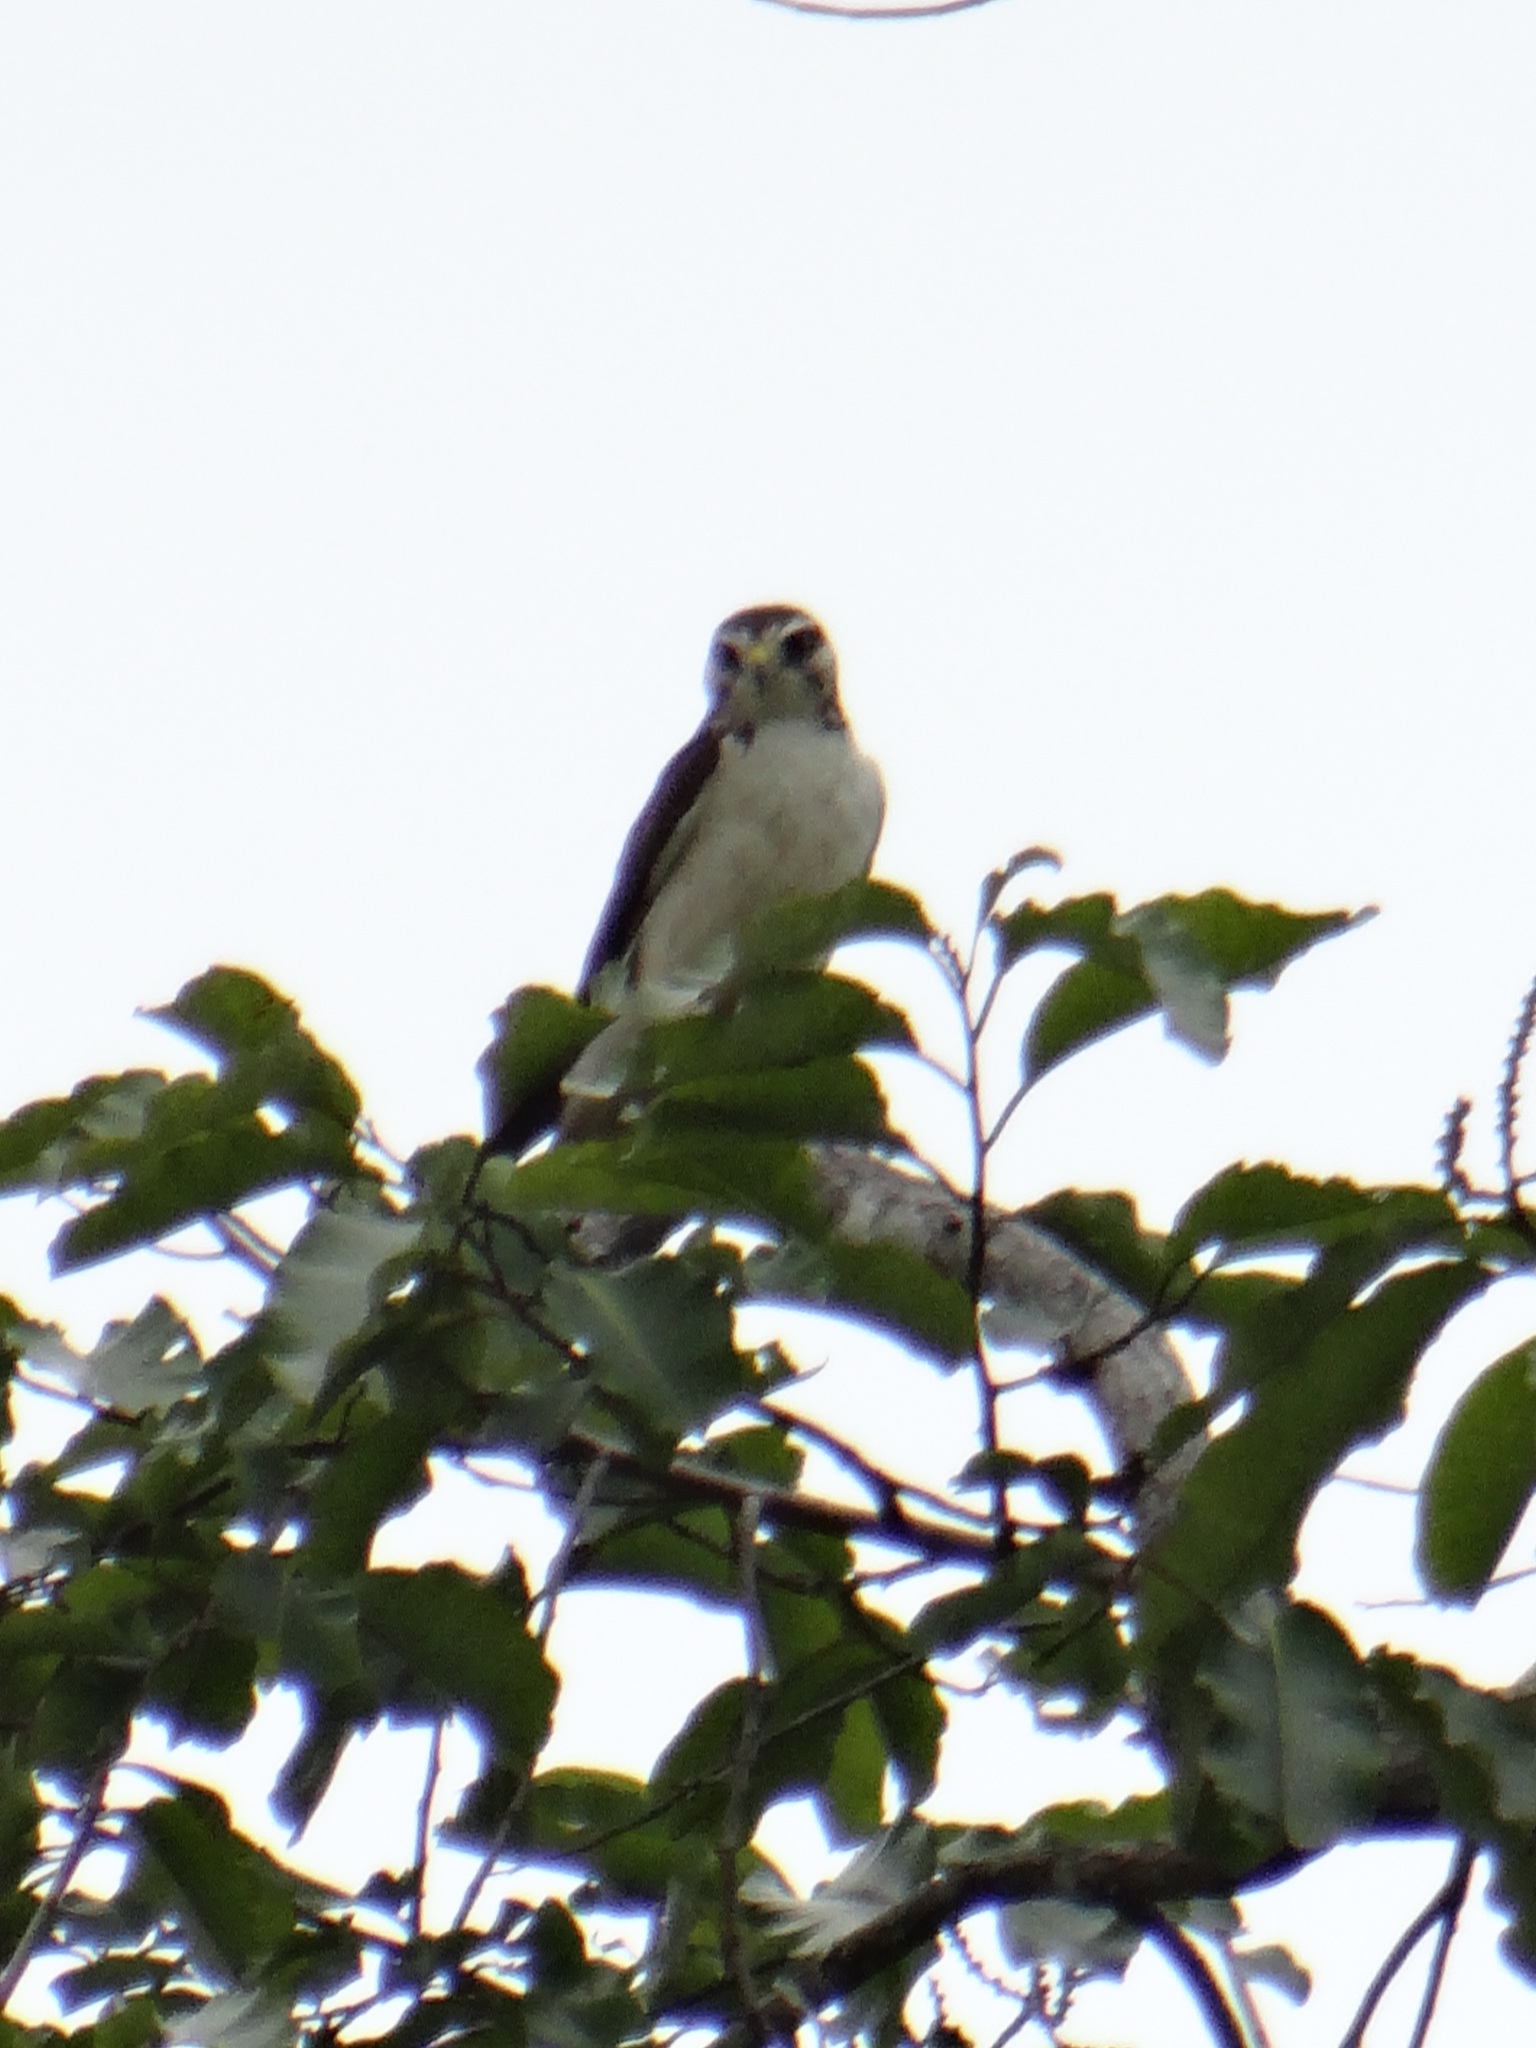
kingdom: Animalia
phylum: Chordata
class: Aves
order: Accipitriformes
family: Accipitridae
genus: Buteo
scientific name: Buteo brachyurus
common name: Short-tailed hawk
